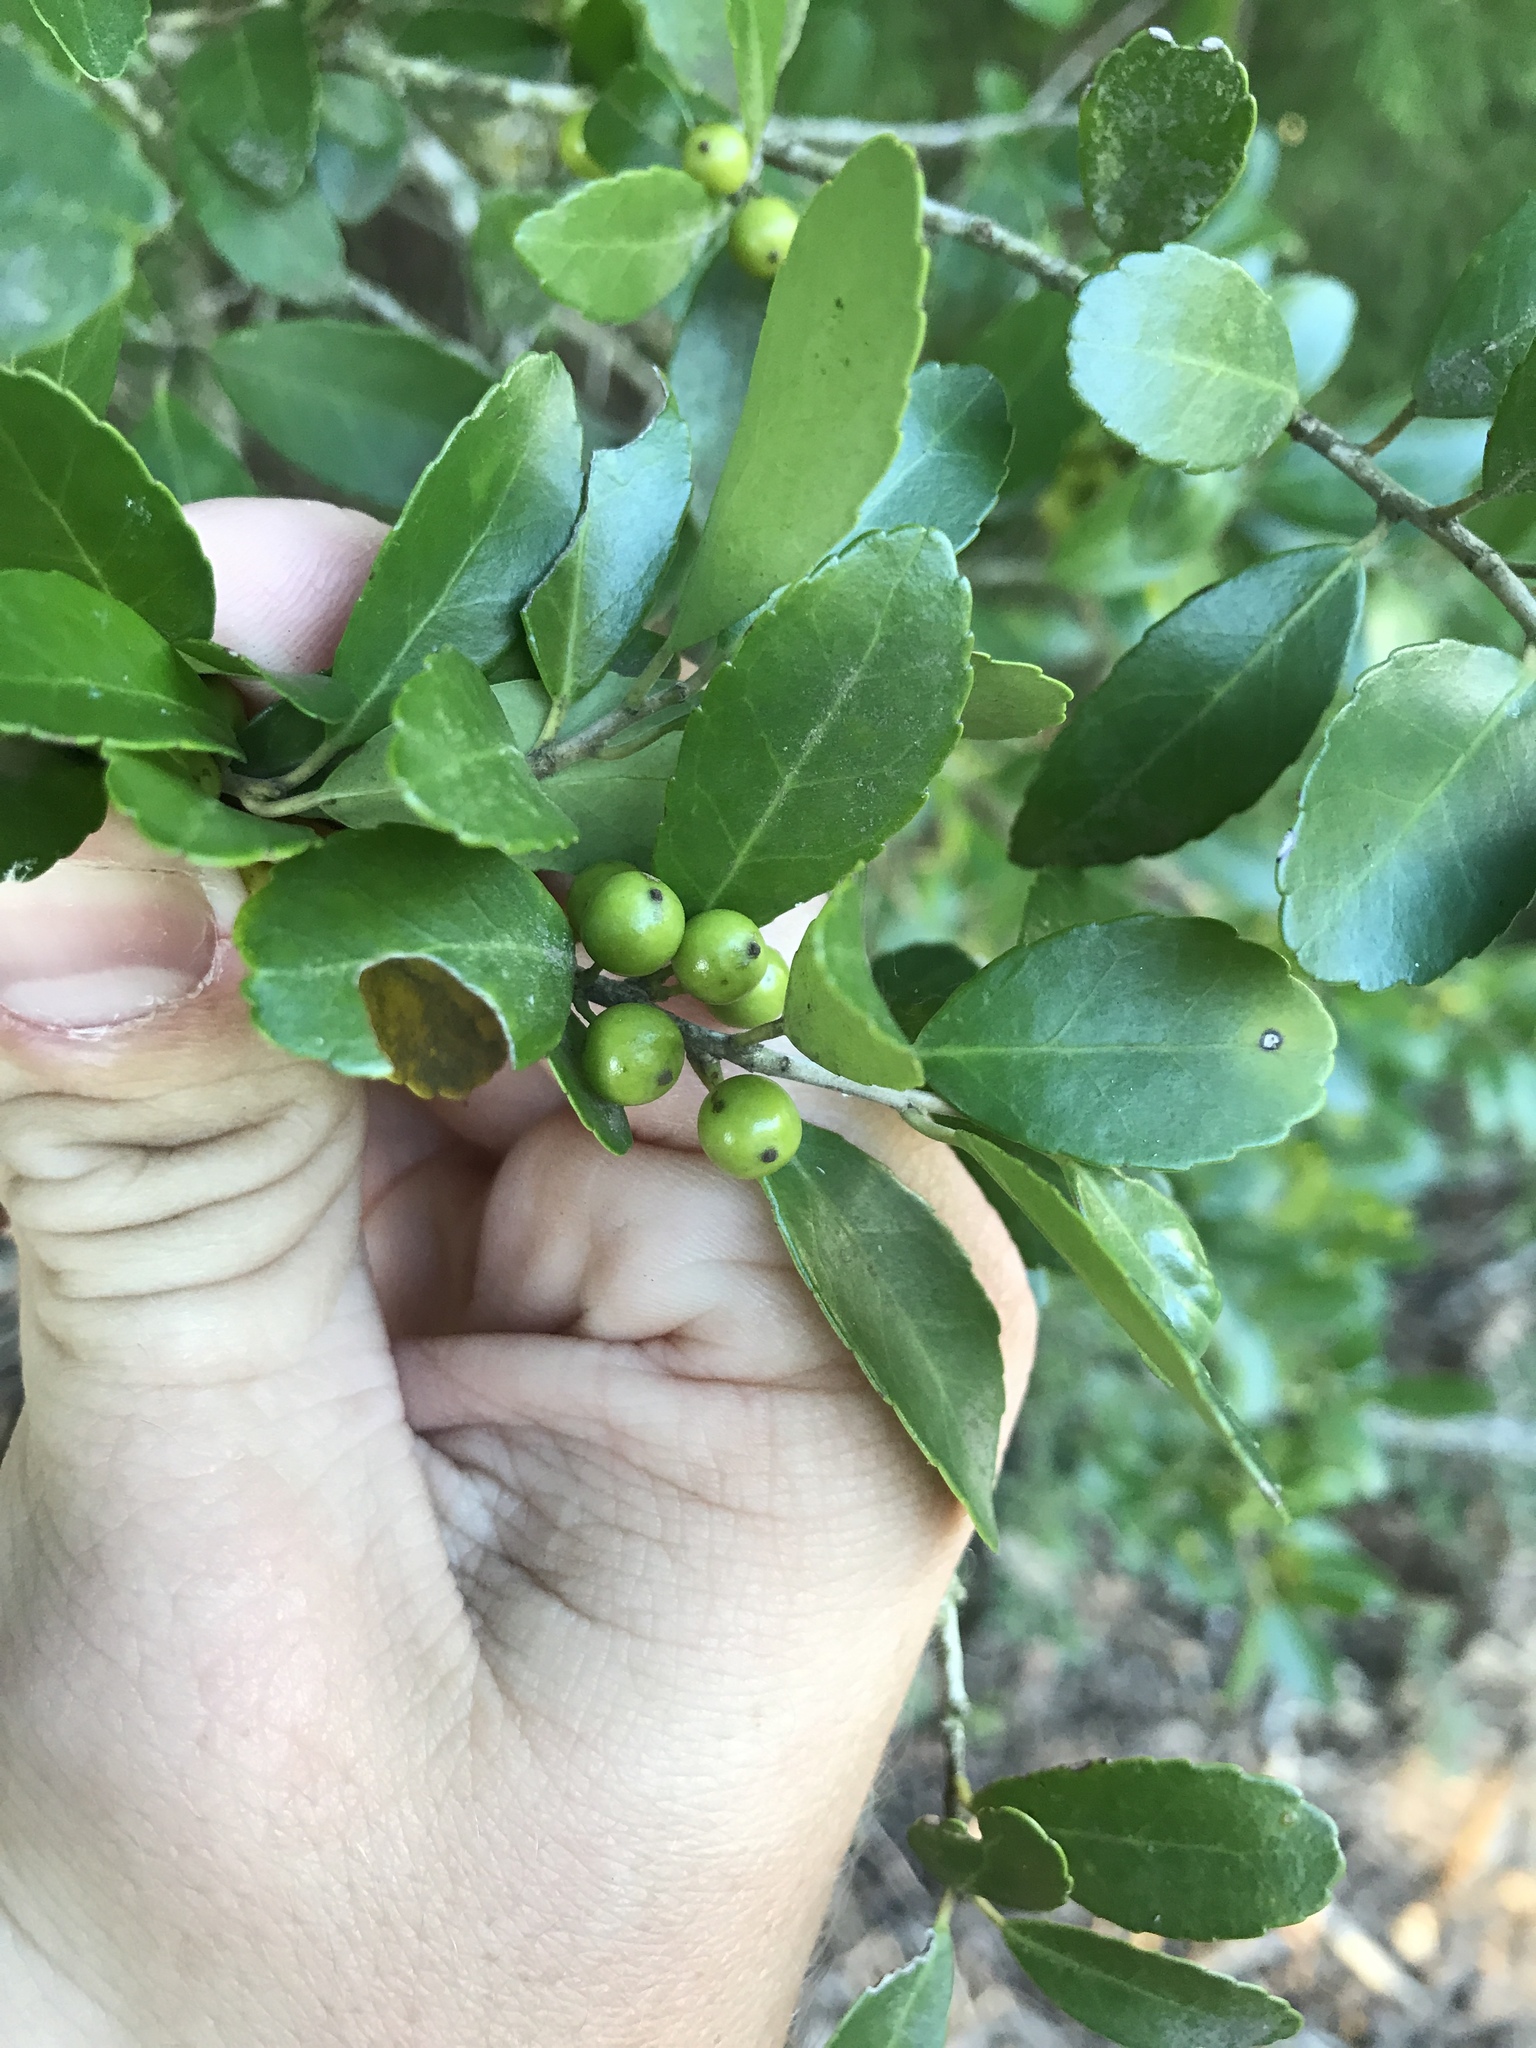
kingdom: Plantae
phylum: Tracheophyta
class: Magnoliopsida
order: Aquifoliales
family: Aquifoliaceae
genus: Ilex
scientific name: Ilex vomitoria
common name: Yaupon holly
